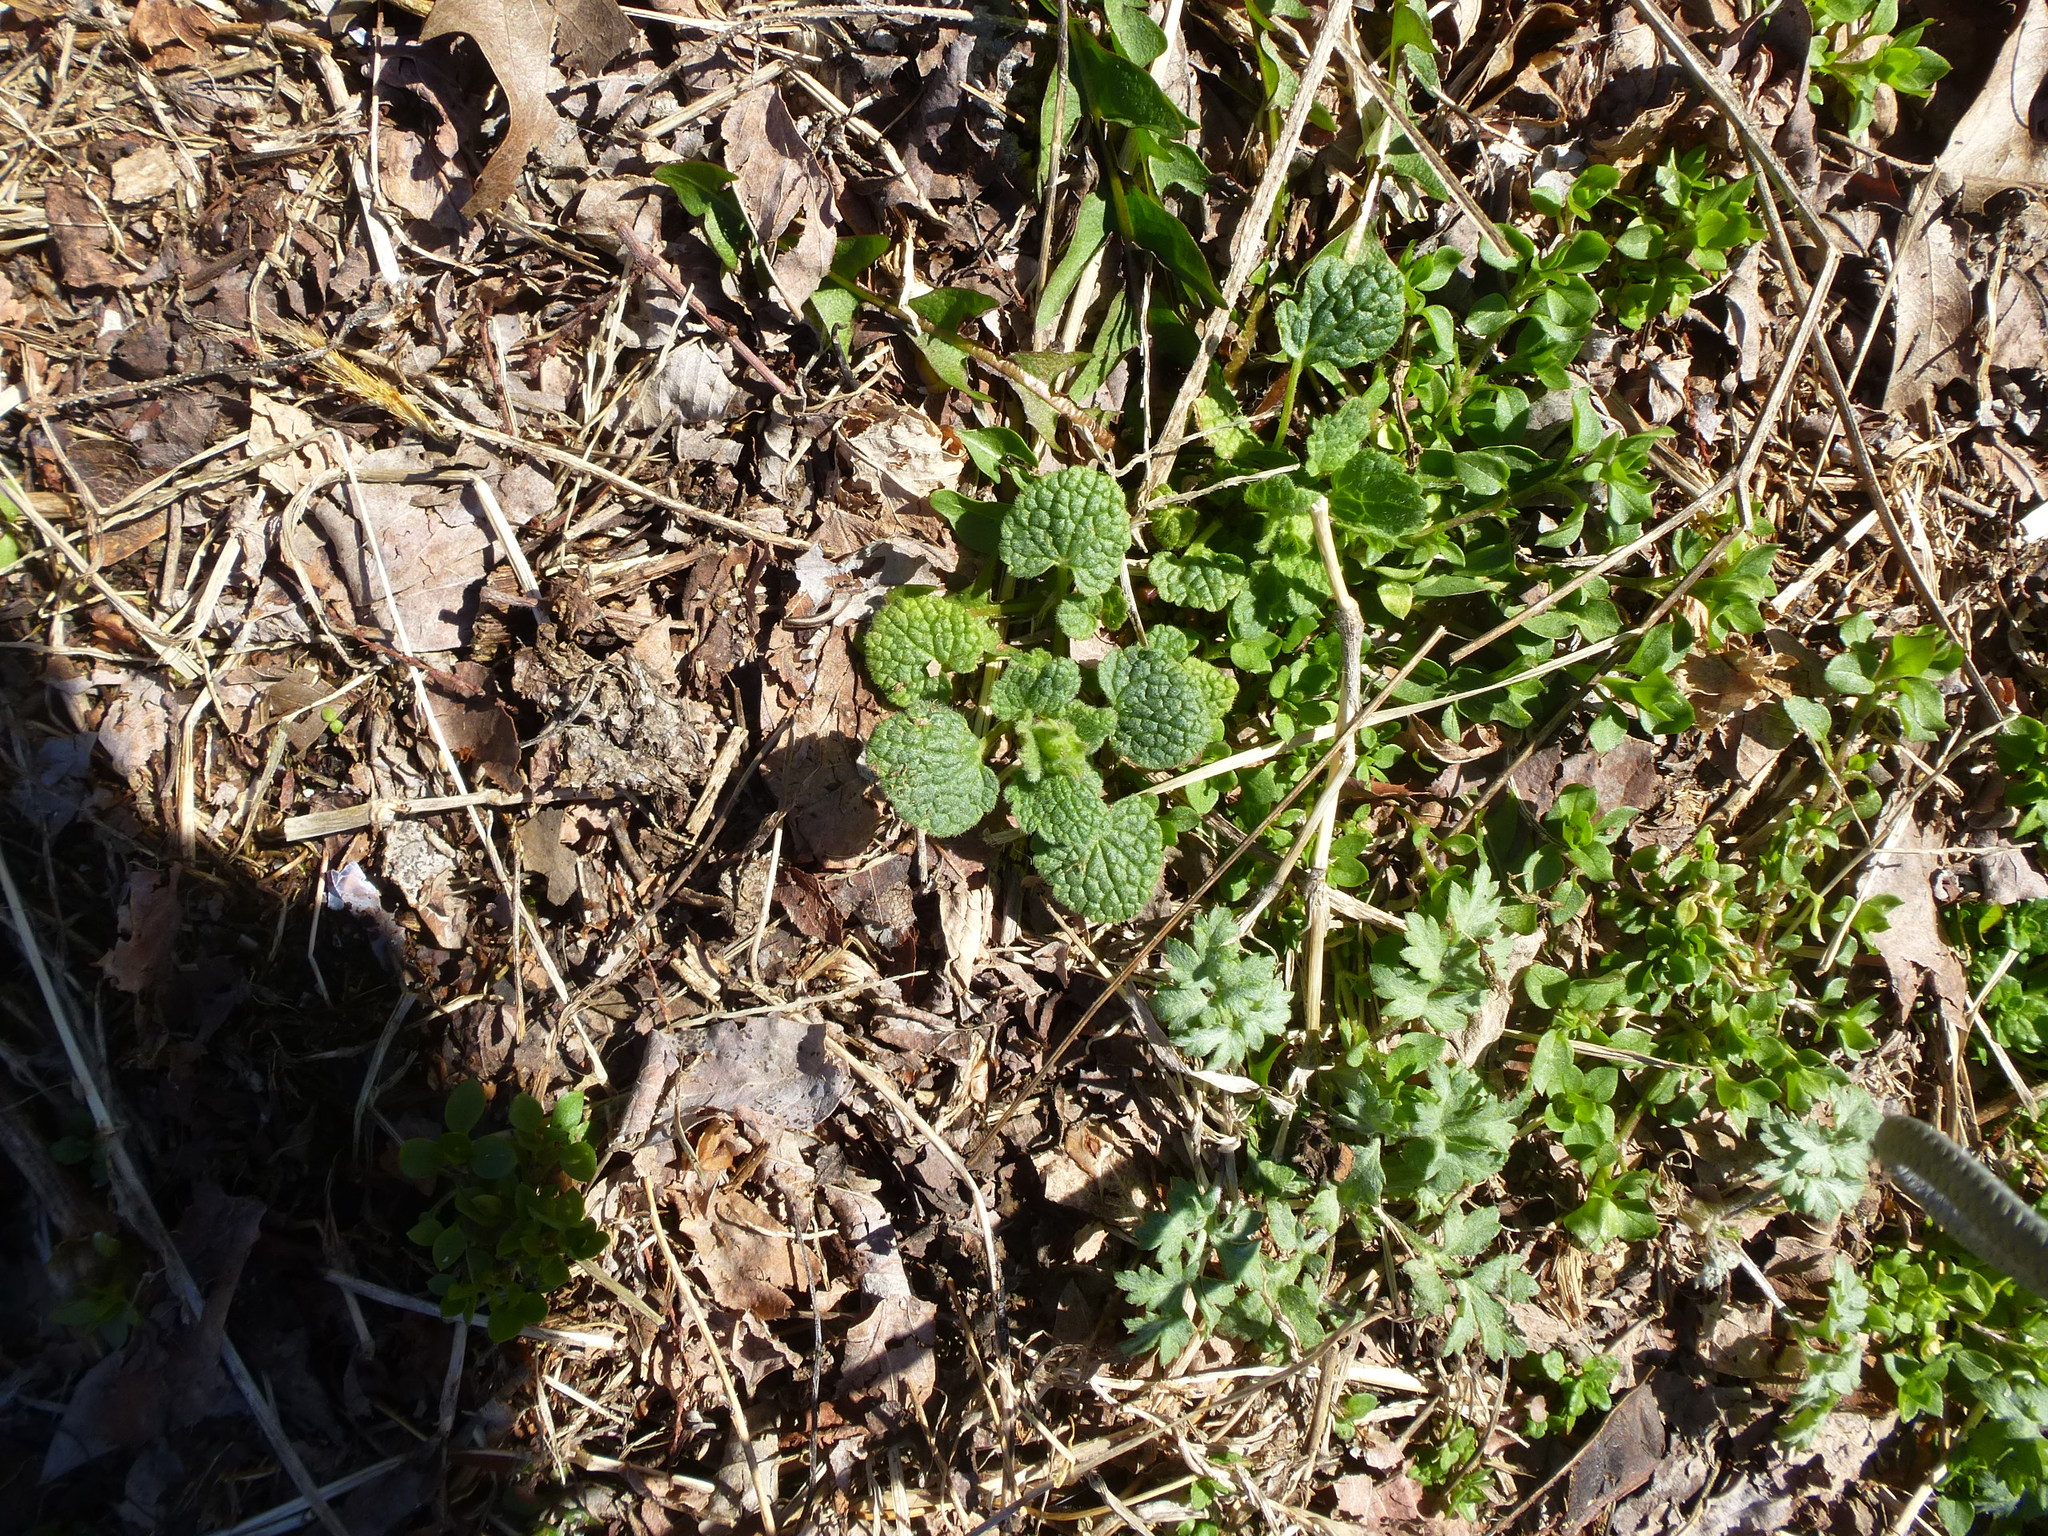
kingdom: Plantae
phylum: Tracheophyta
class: Magnoliopsida
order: Lamiales
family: Lamiaceae
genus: Lamium
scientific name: Lamium purpureum
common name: Red dead-nettle
